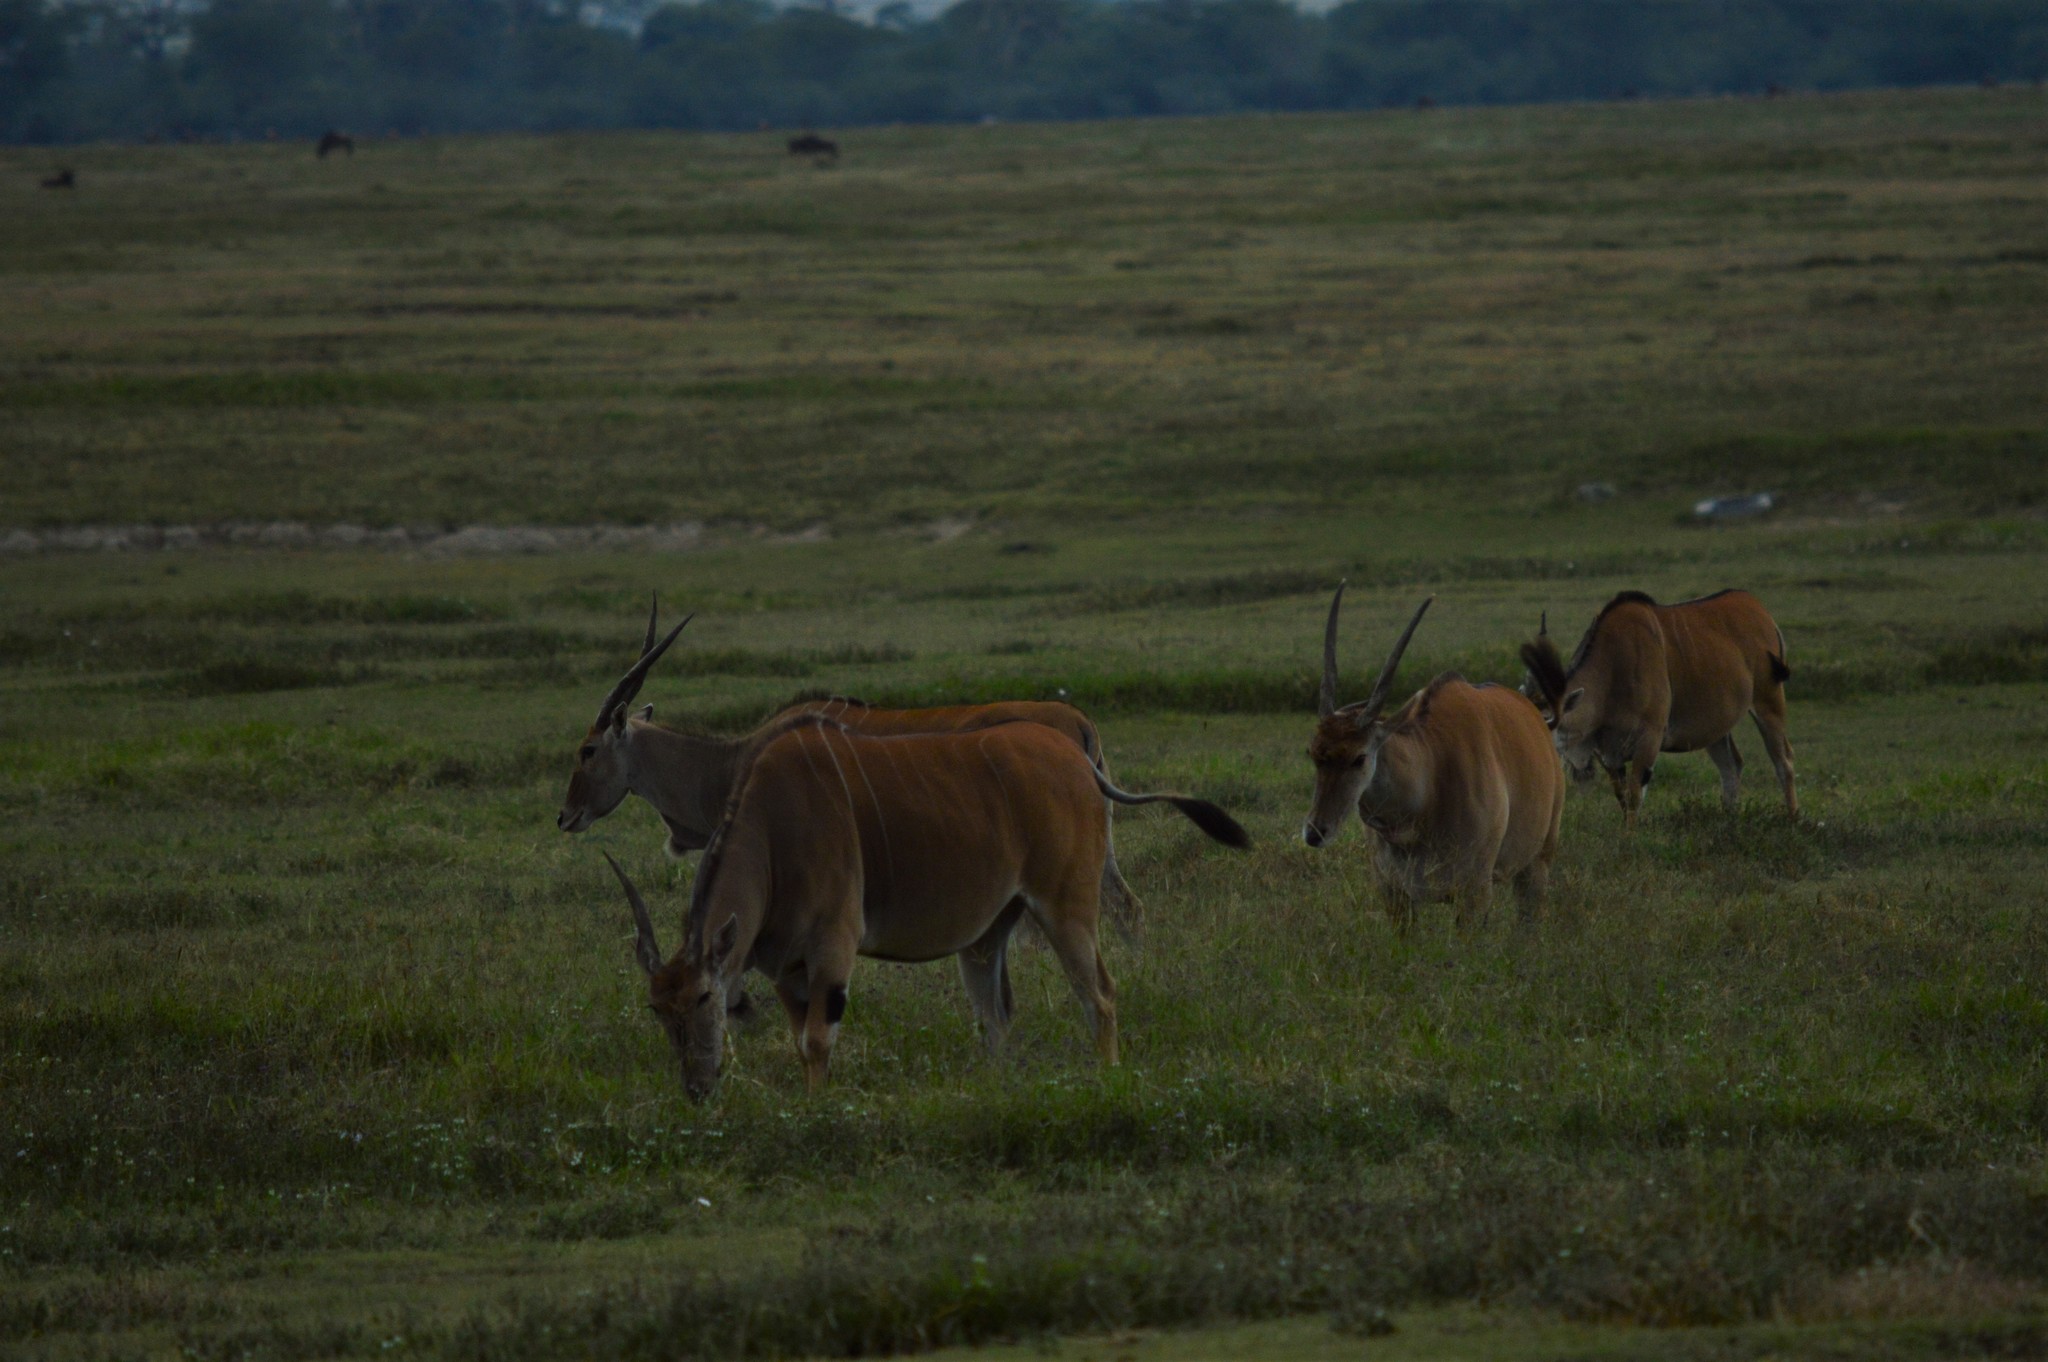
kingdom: Animalia
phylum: Chordata
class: Mammalia
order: Artiodactyla
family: Bovidae
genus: Taurotragus
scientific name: Taurotragus oryx
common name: Common eland
